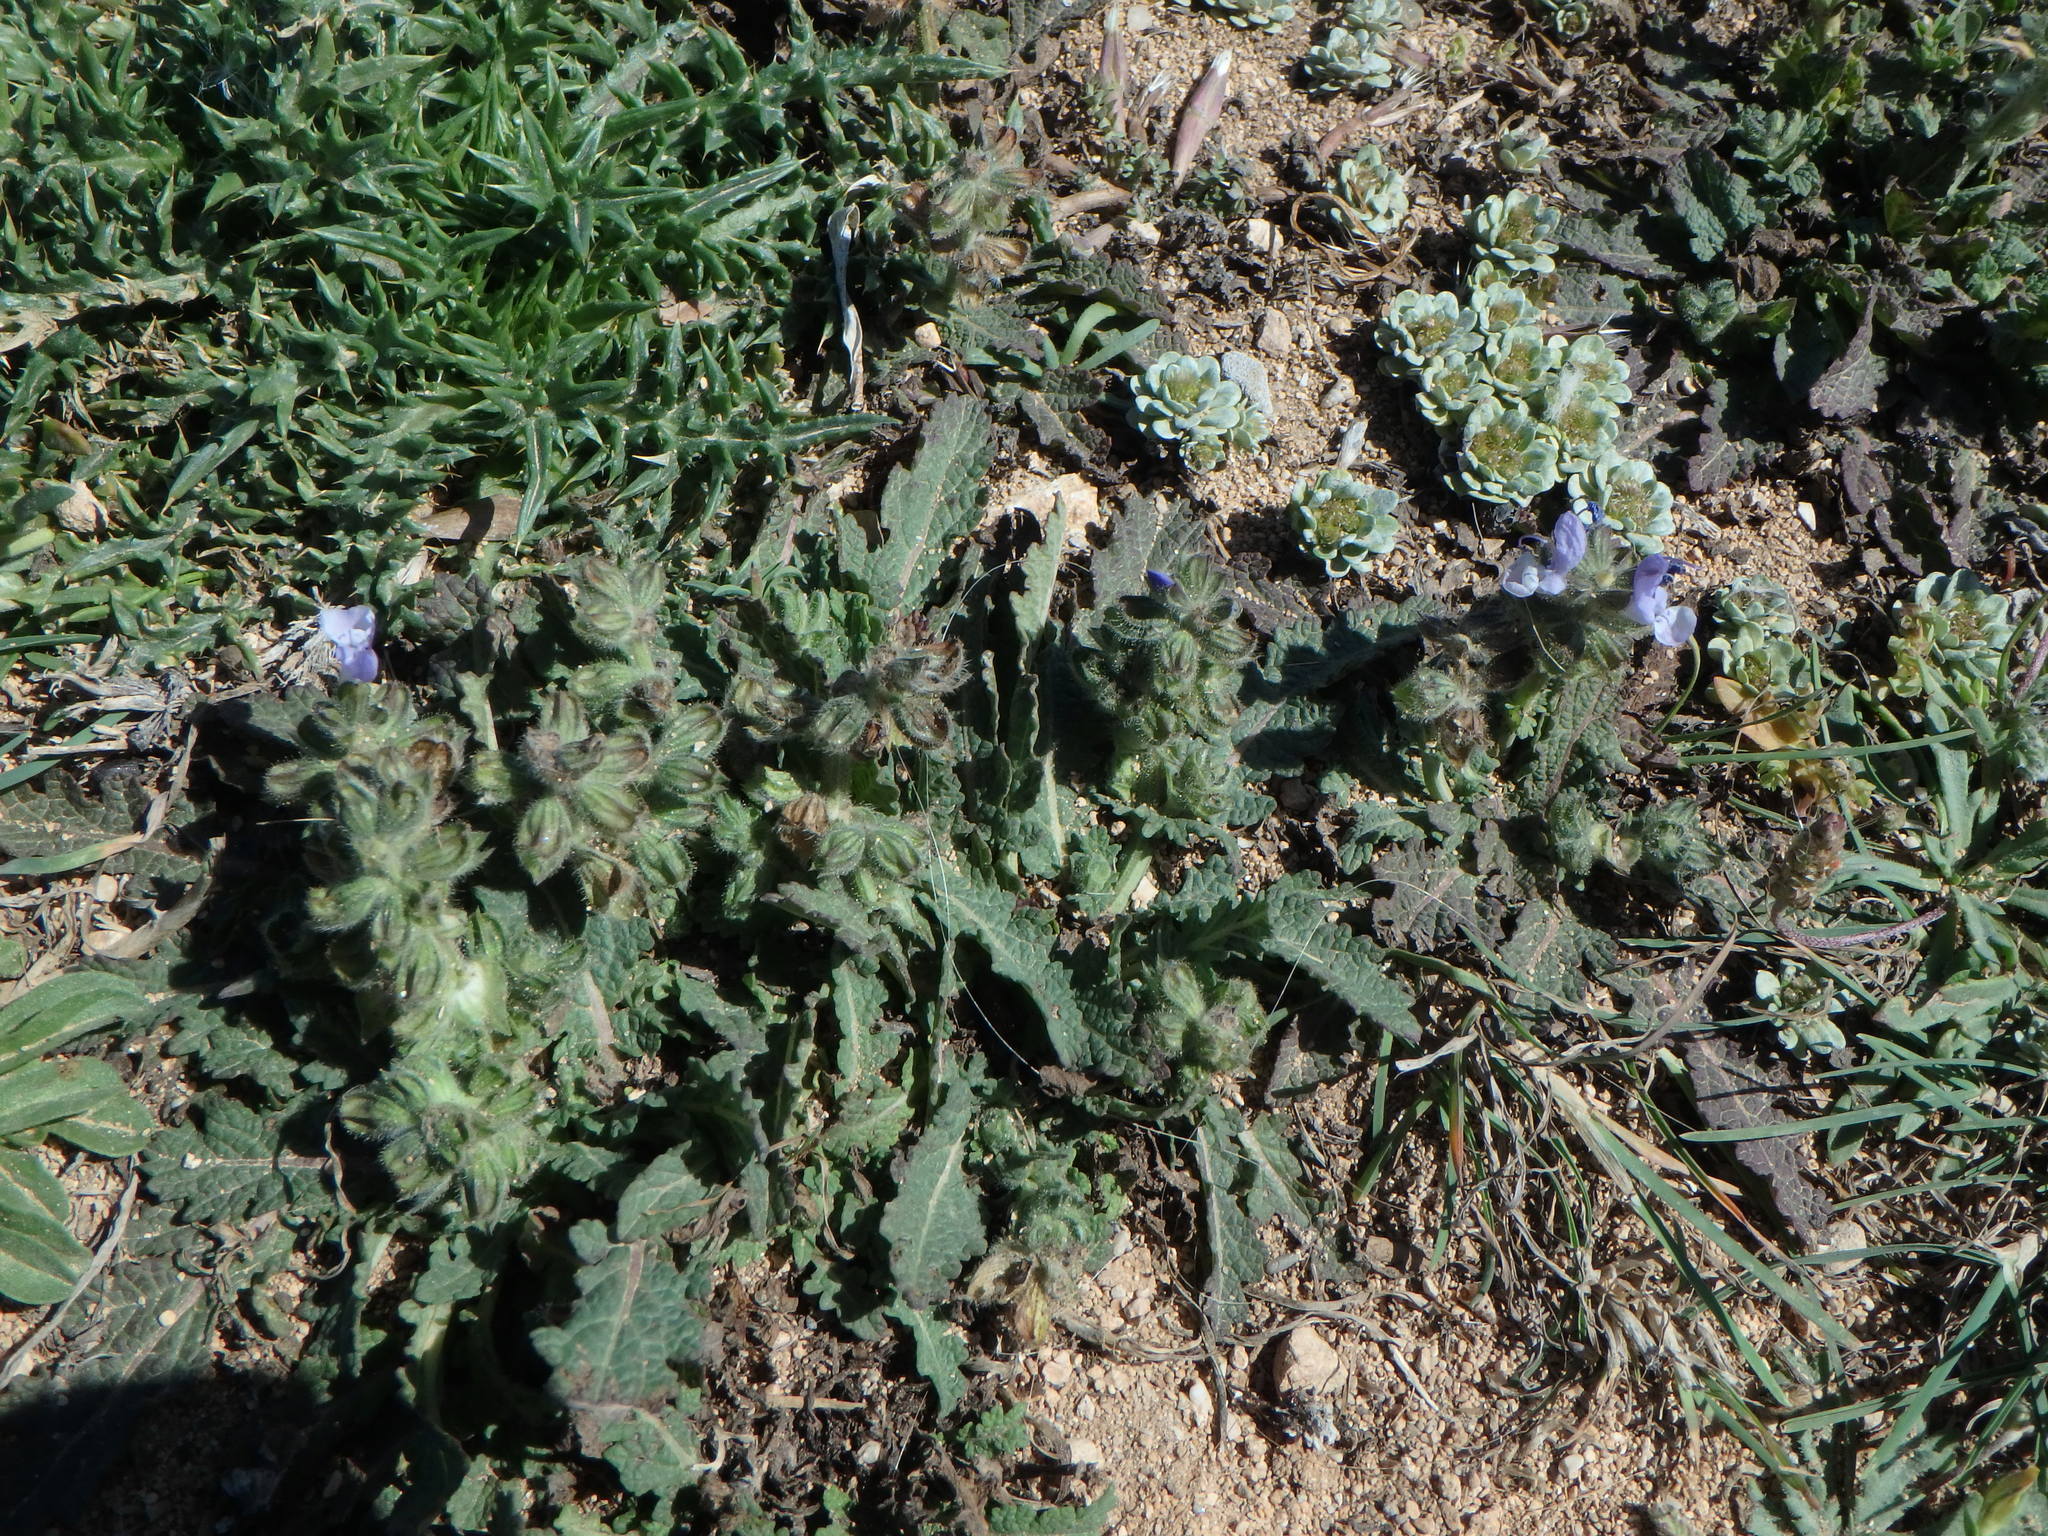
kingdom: Plantae
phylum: Tracheophyta
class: Magnoliopsida
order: Lamiales
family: Lamiaceae
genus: Salvia
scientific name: Salvia verbenaca
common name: Wild clary
